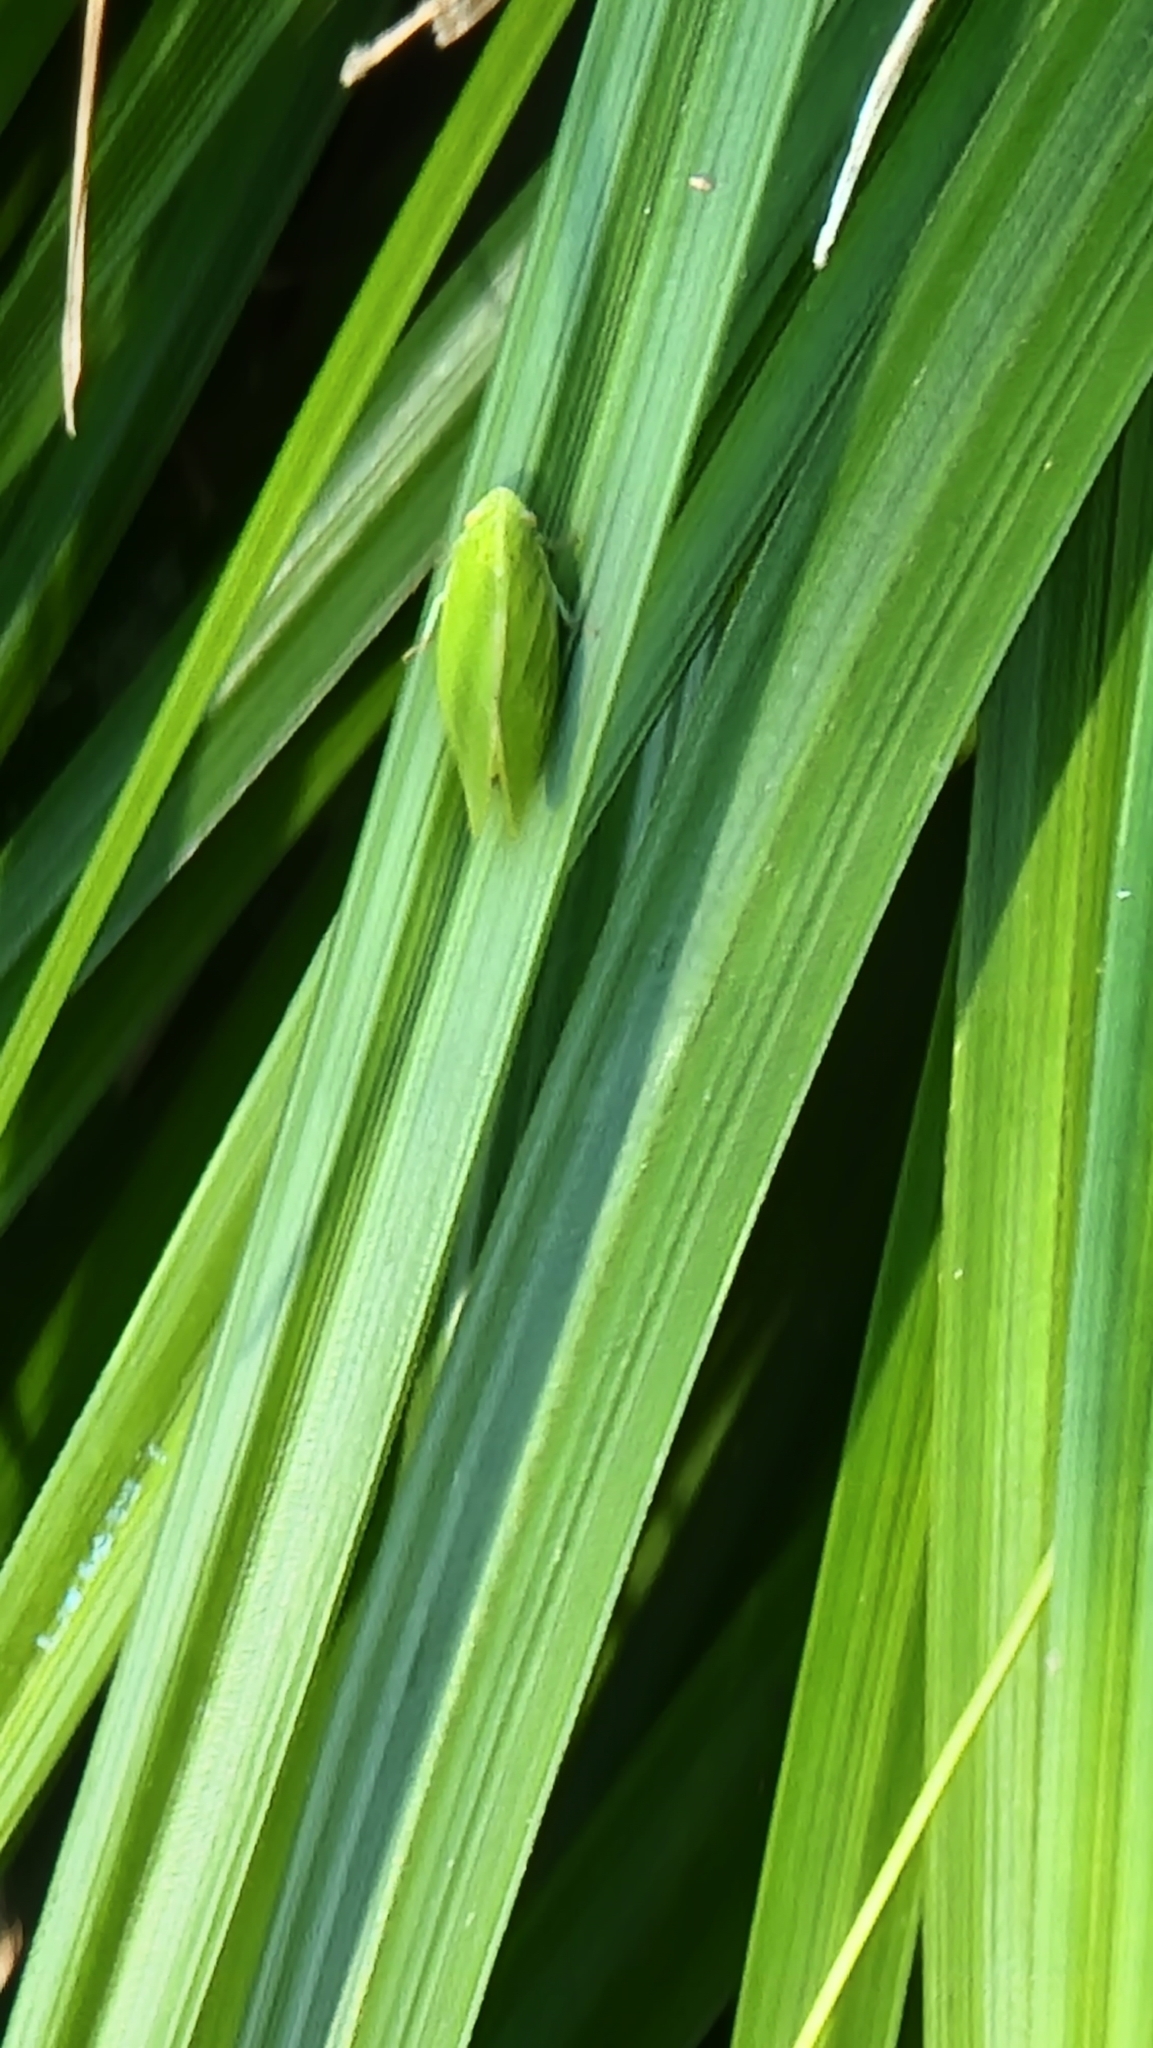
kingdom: Animalia
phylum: Arthropoda
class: Insecta
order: Hemiptera
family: Acanaloniidae
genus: Acanalonia
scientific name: Acanalonia conica
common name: Green cone-headed planthopper
